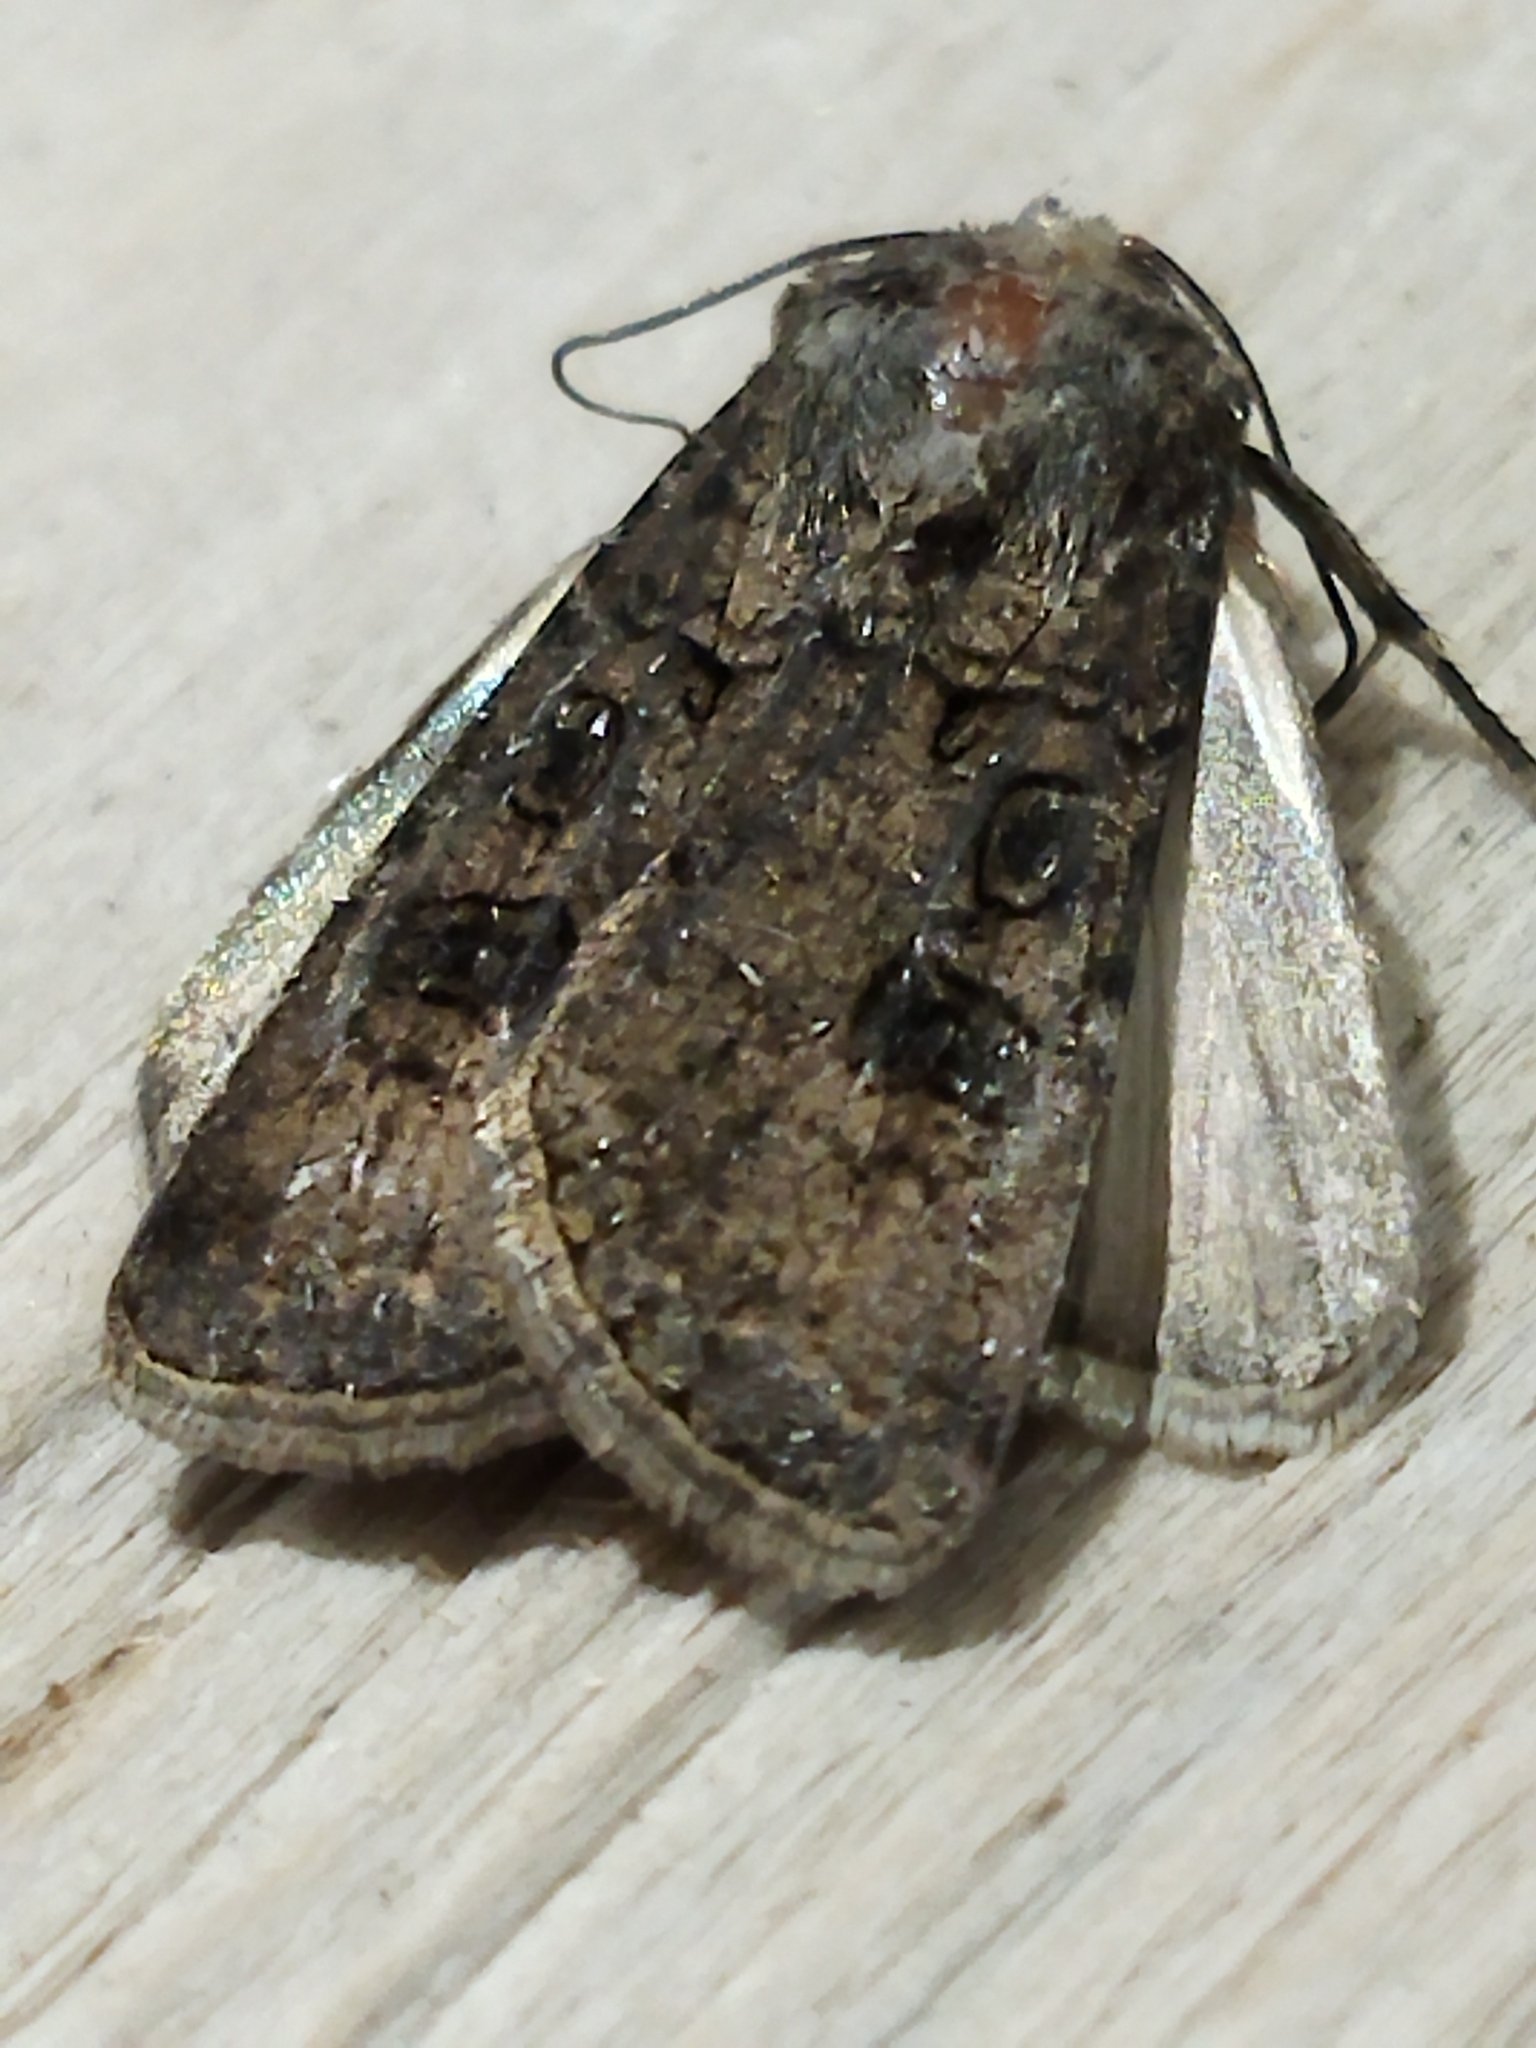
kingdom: Animalia
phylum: Arthropoda
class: Insecta
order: Lepidoptera
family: Noctuidae
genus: Agrotis
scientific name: Agrotis segetum
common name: Turnip moth
